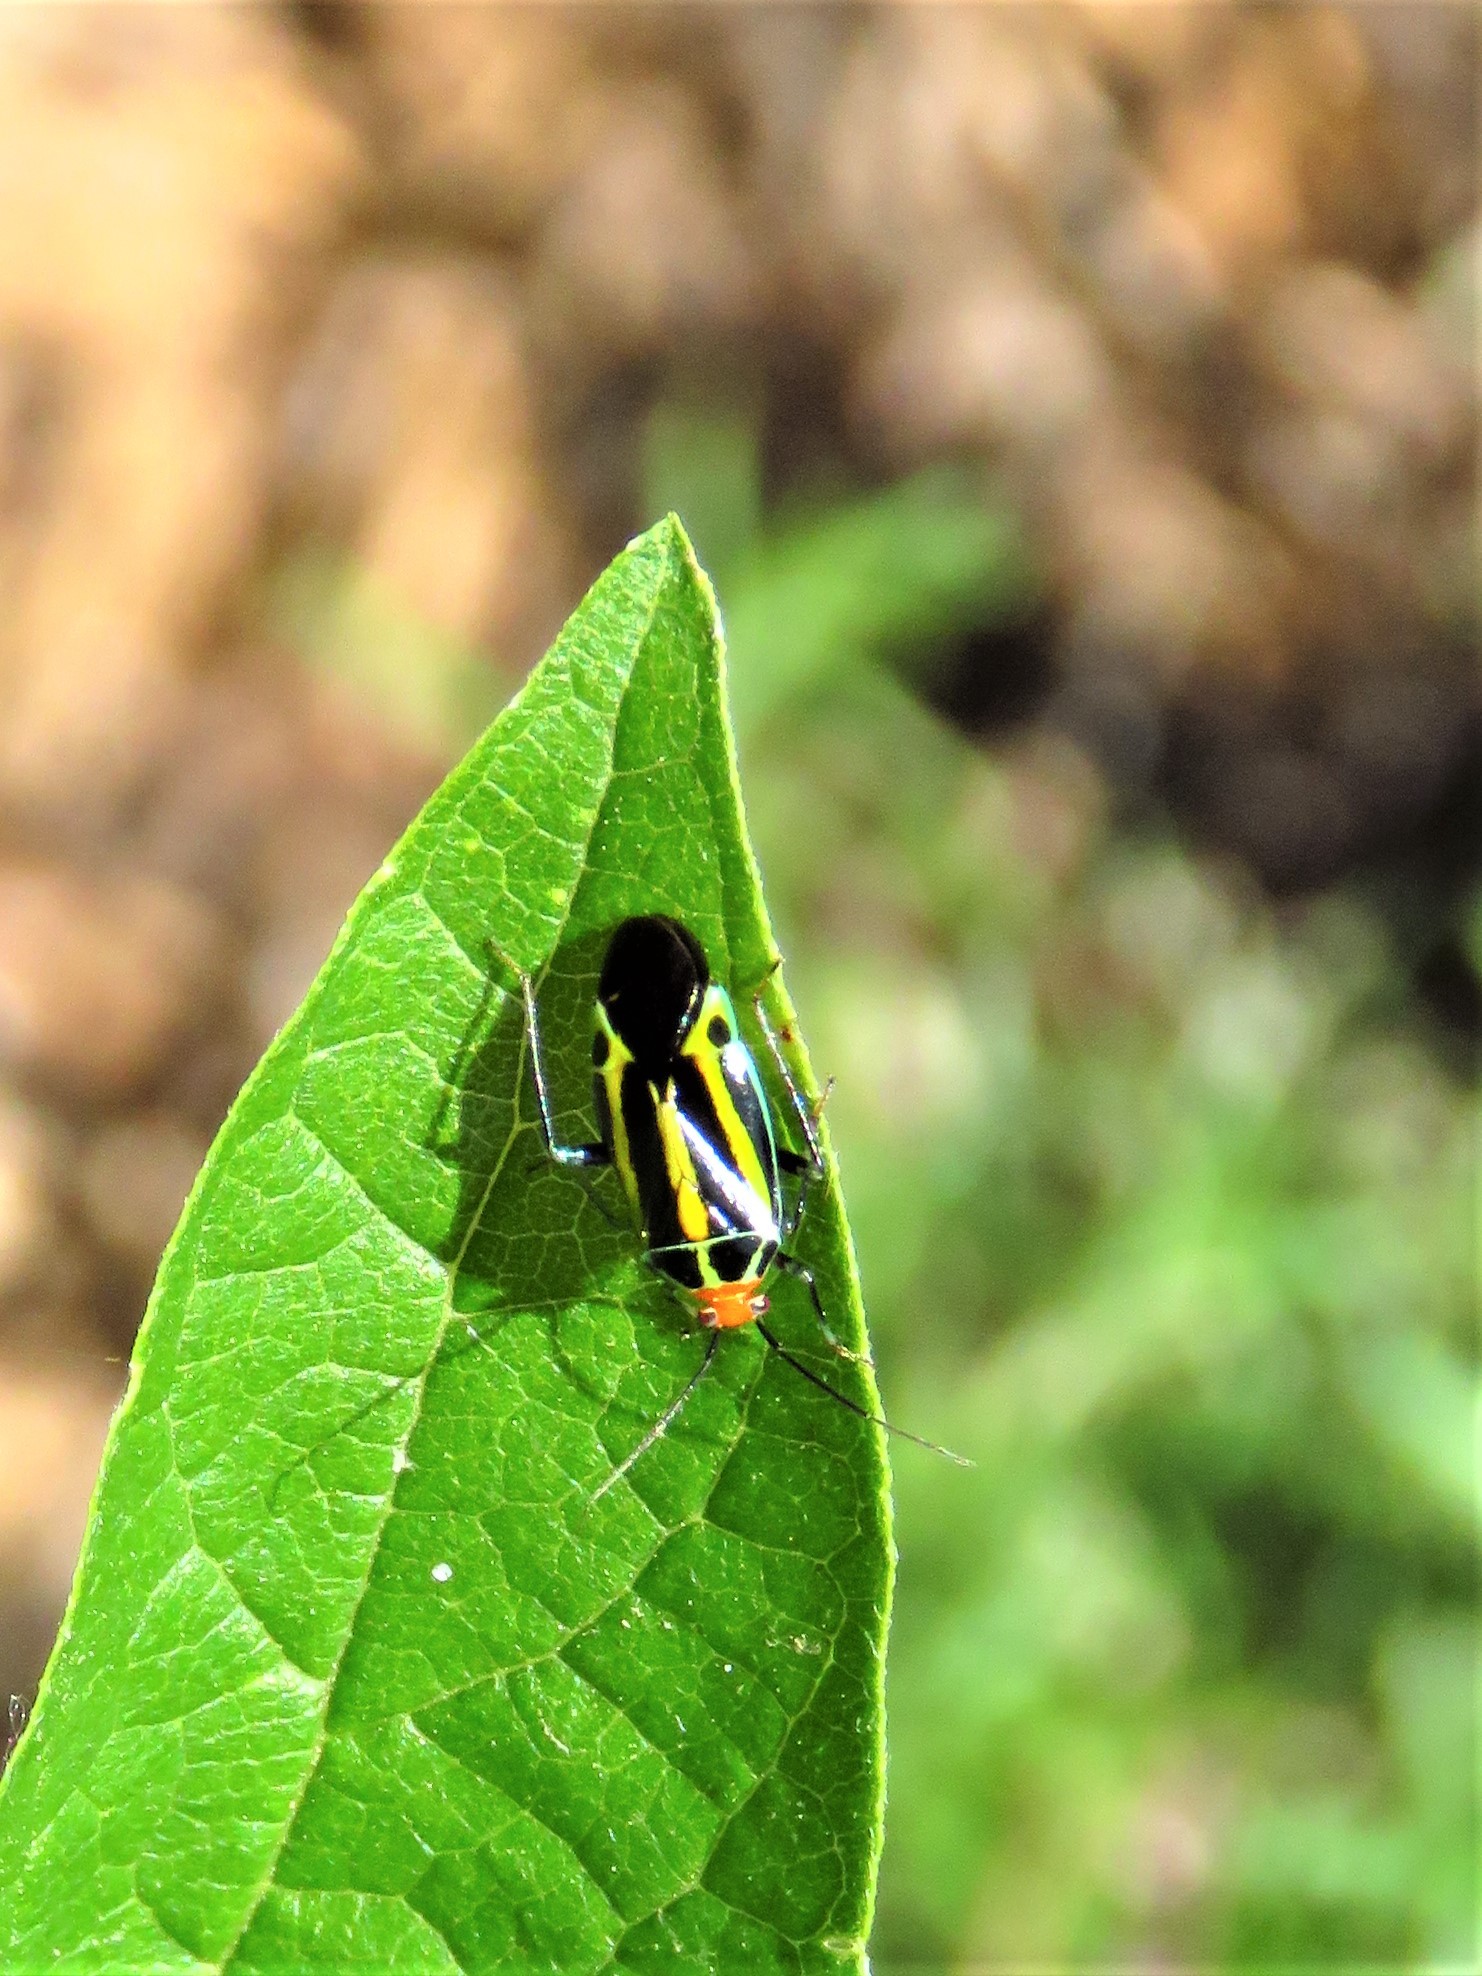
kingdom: Animalia
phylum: Arthropoda
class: Insecta
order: Hemiptera
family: Miridae
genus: Poecilocapsus
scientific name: Poecilocapsus lineatus
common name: Four-lined plant bug
